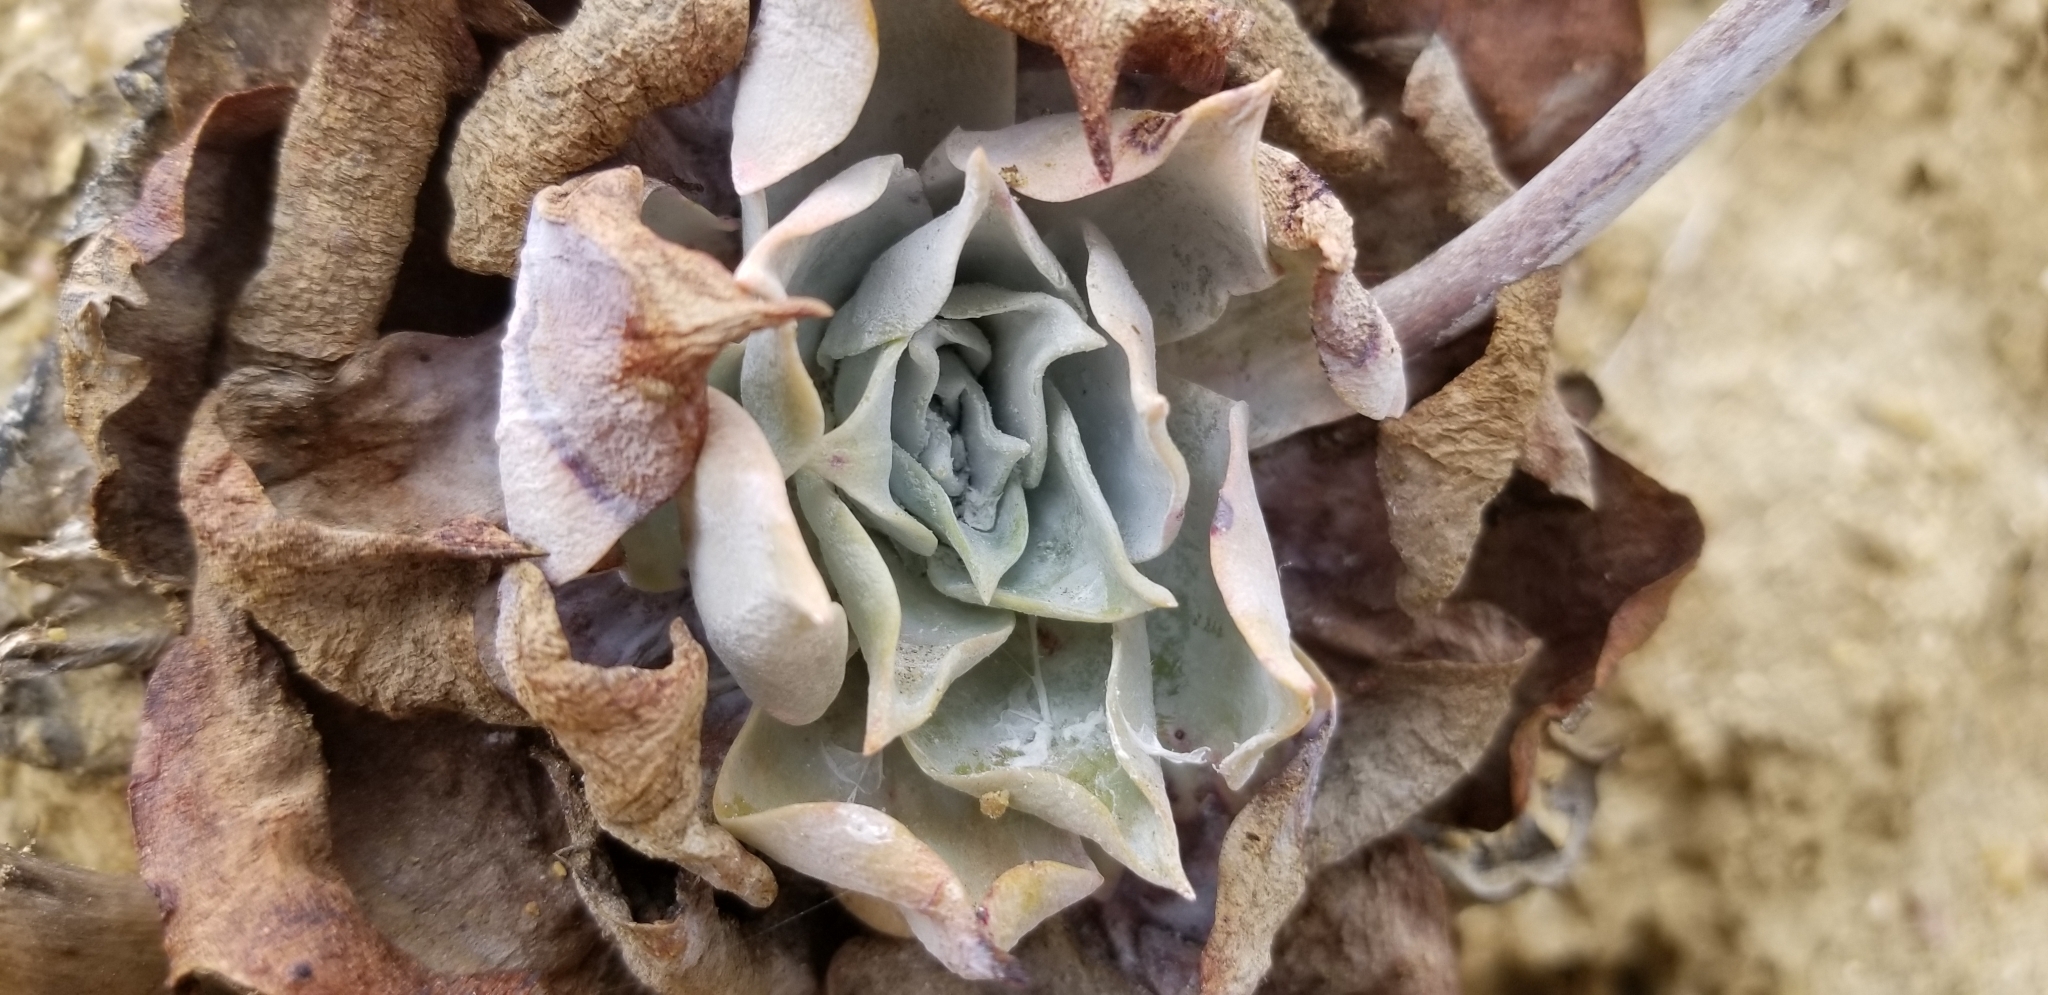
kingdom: Plantae
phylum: Tracheophyta
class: Magnoliopsida
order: Saxifragales
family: Crassulaceae
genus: Dudleya
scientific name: Dudleya pulverulenta
